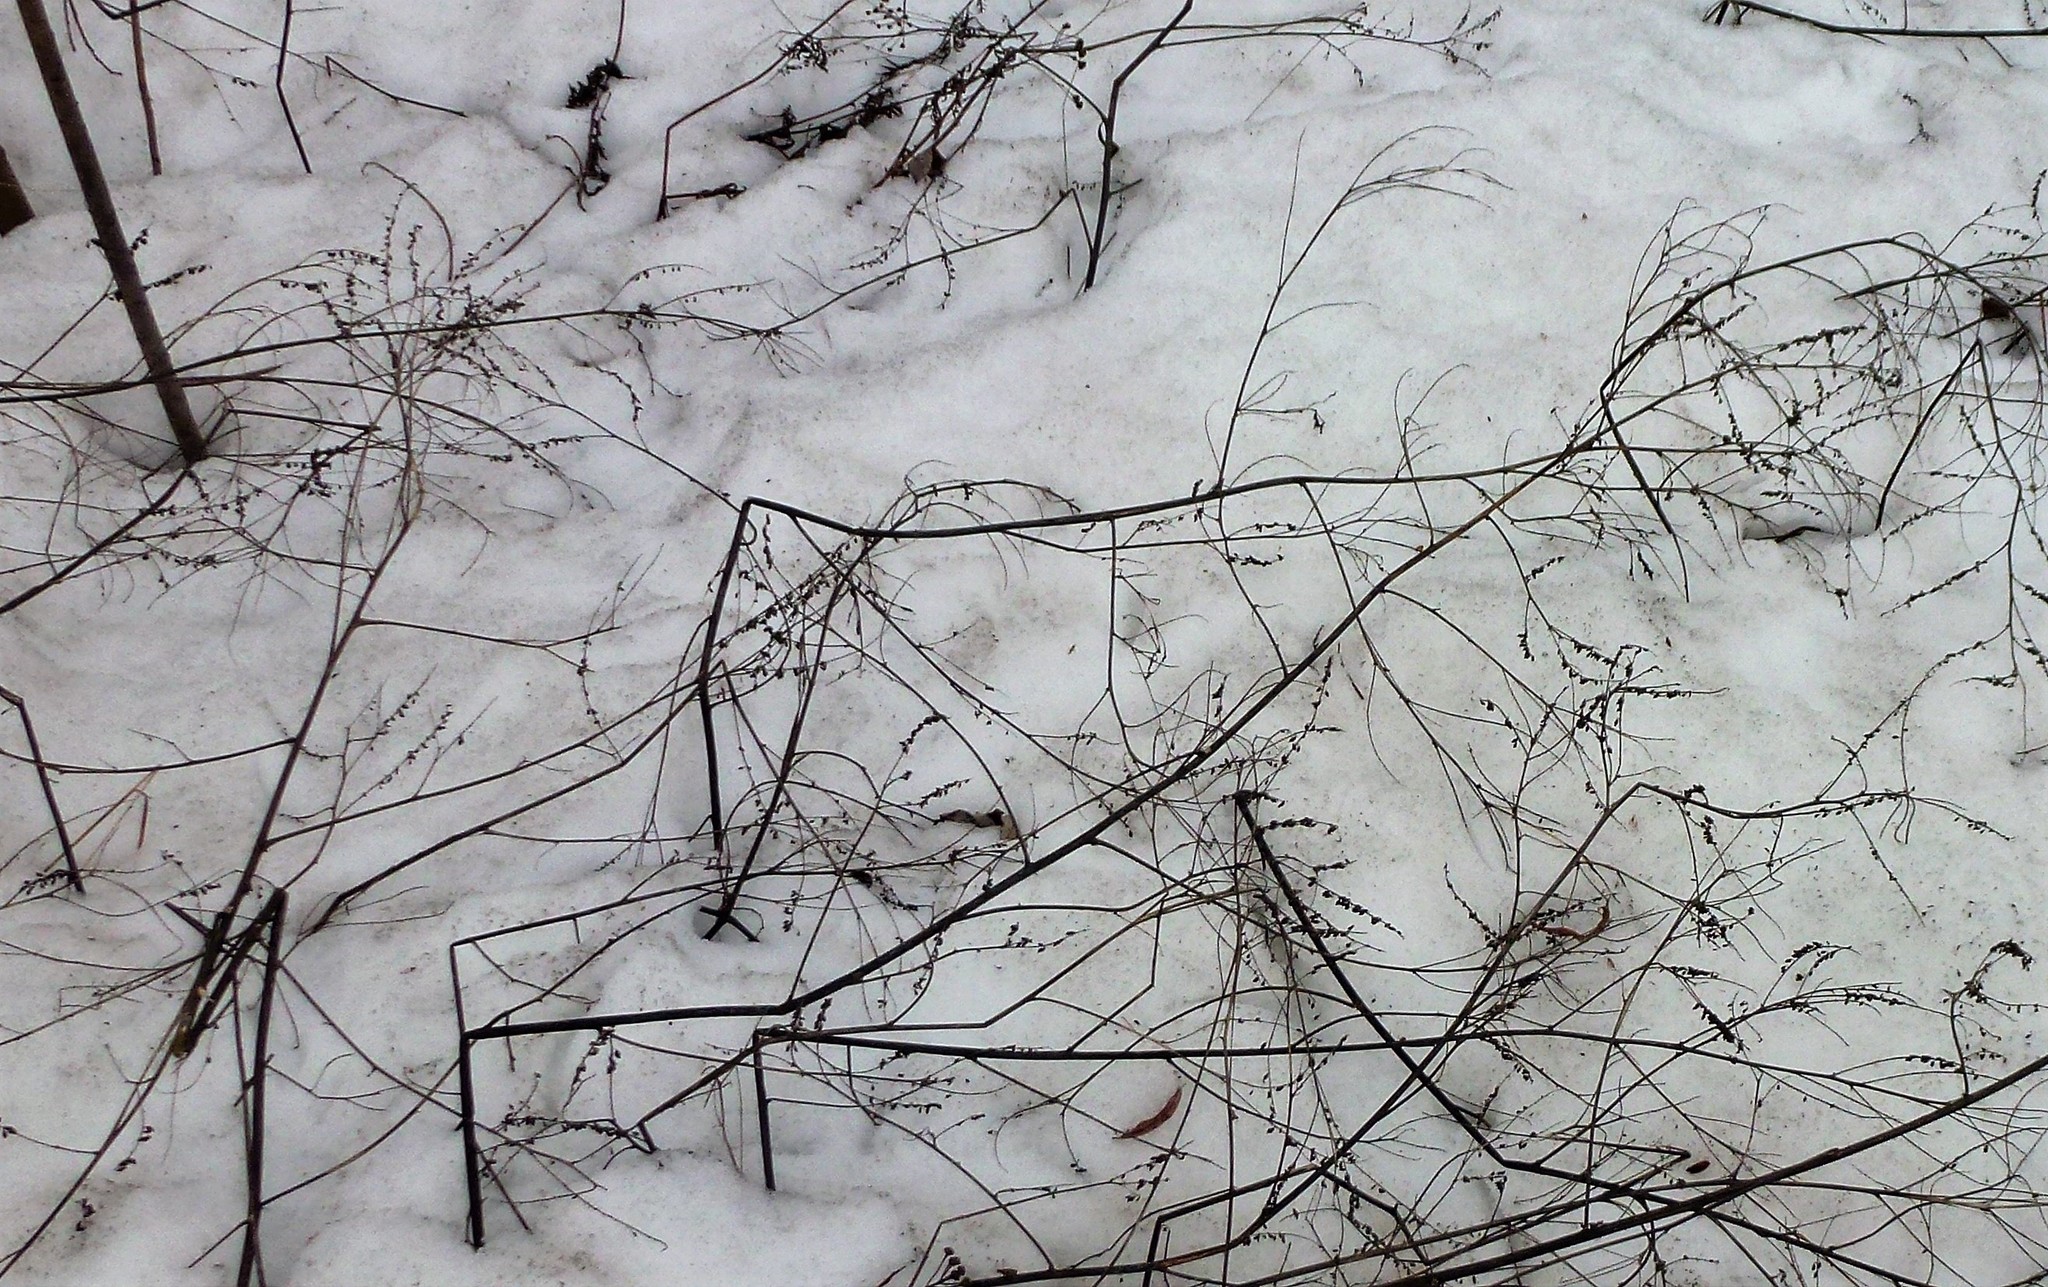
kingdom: Plantae
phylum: Tracheophyta
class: Magnoliopsida
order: Fabales
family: Fabaceae
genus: Melilotus
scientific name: Melilotus albus
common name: White melilot
